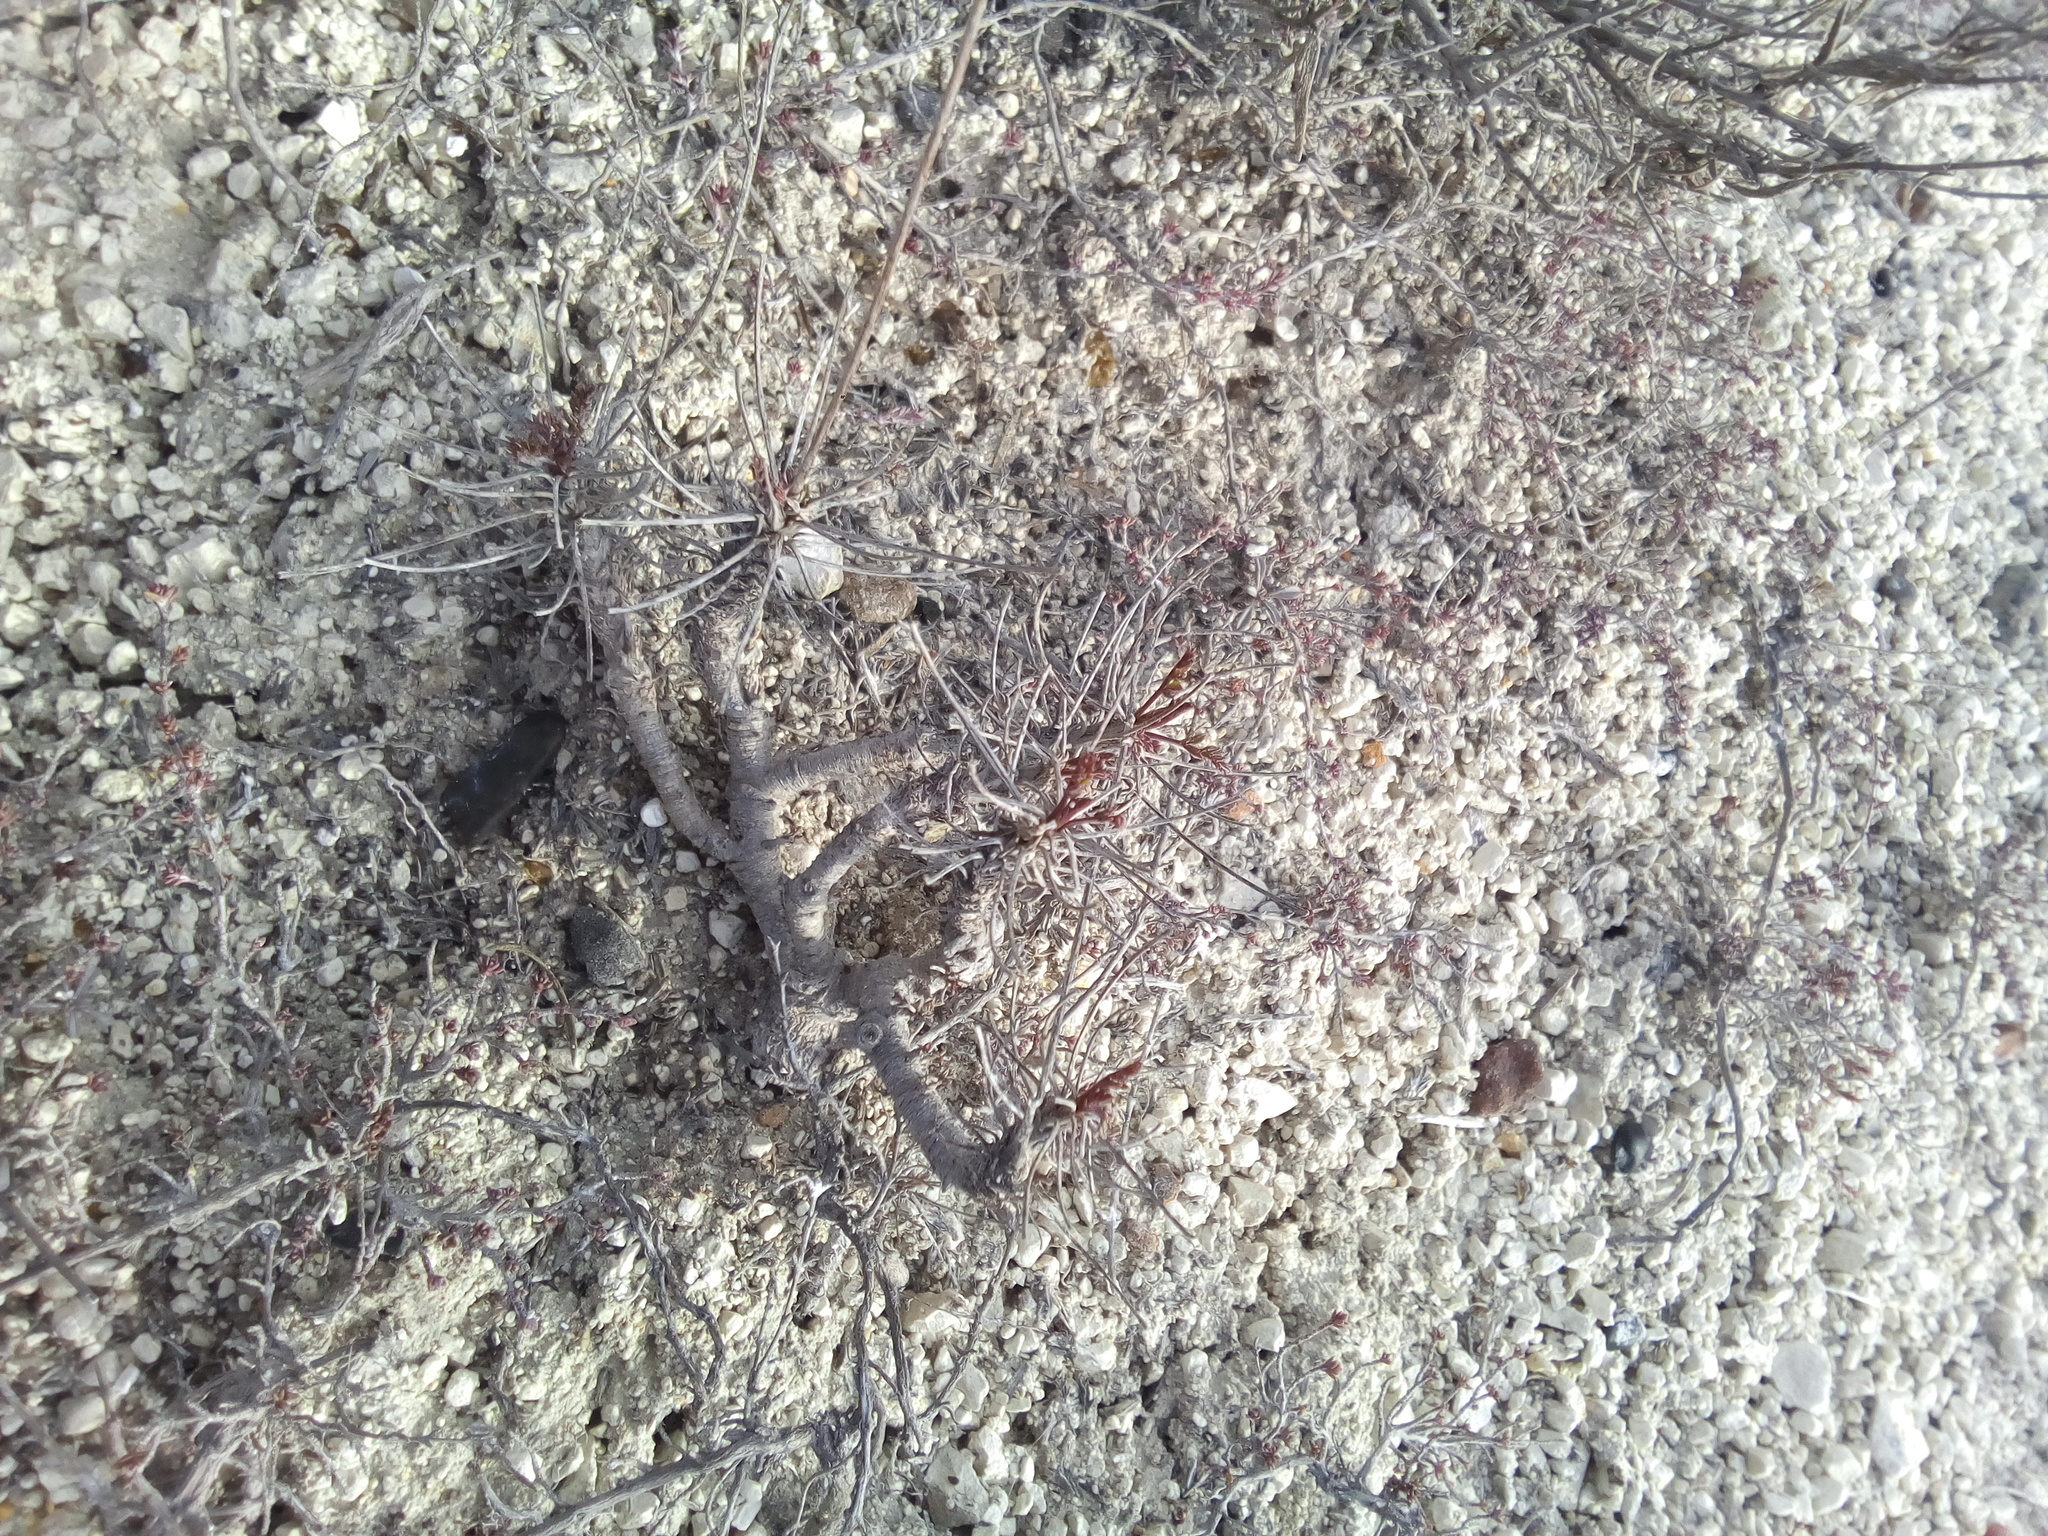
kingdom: Plantae
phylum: Tracheophyta
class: Magnoliopsida
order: Apiales
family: Apiaceae
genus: Pimpinella
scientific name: Pimpinella tragium
